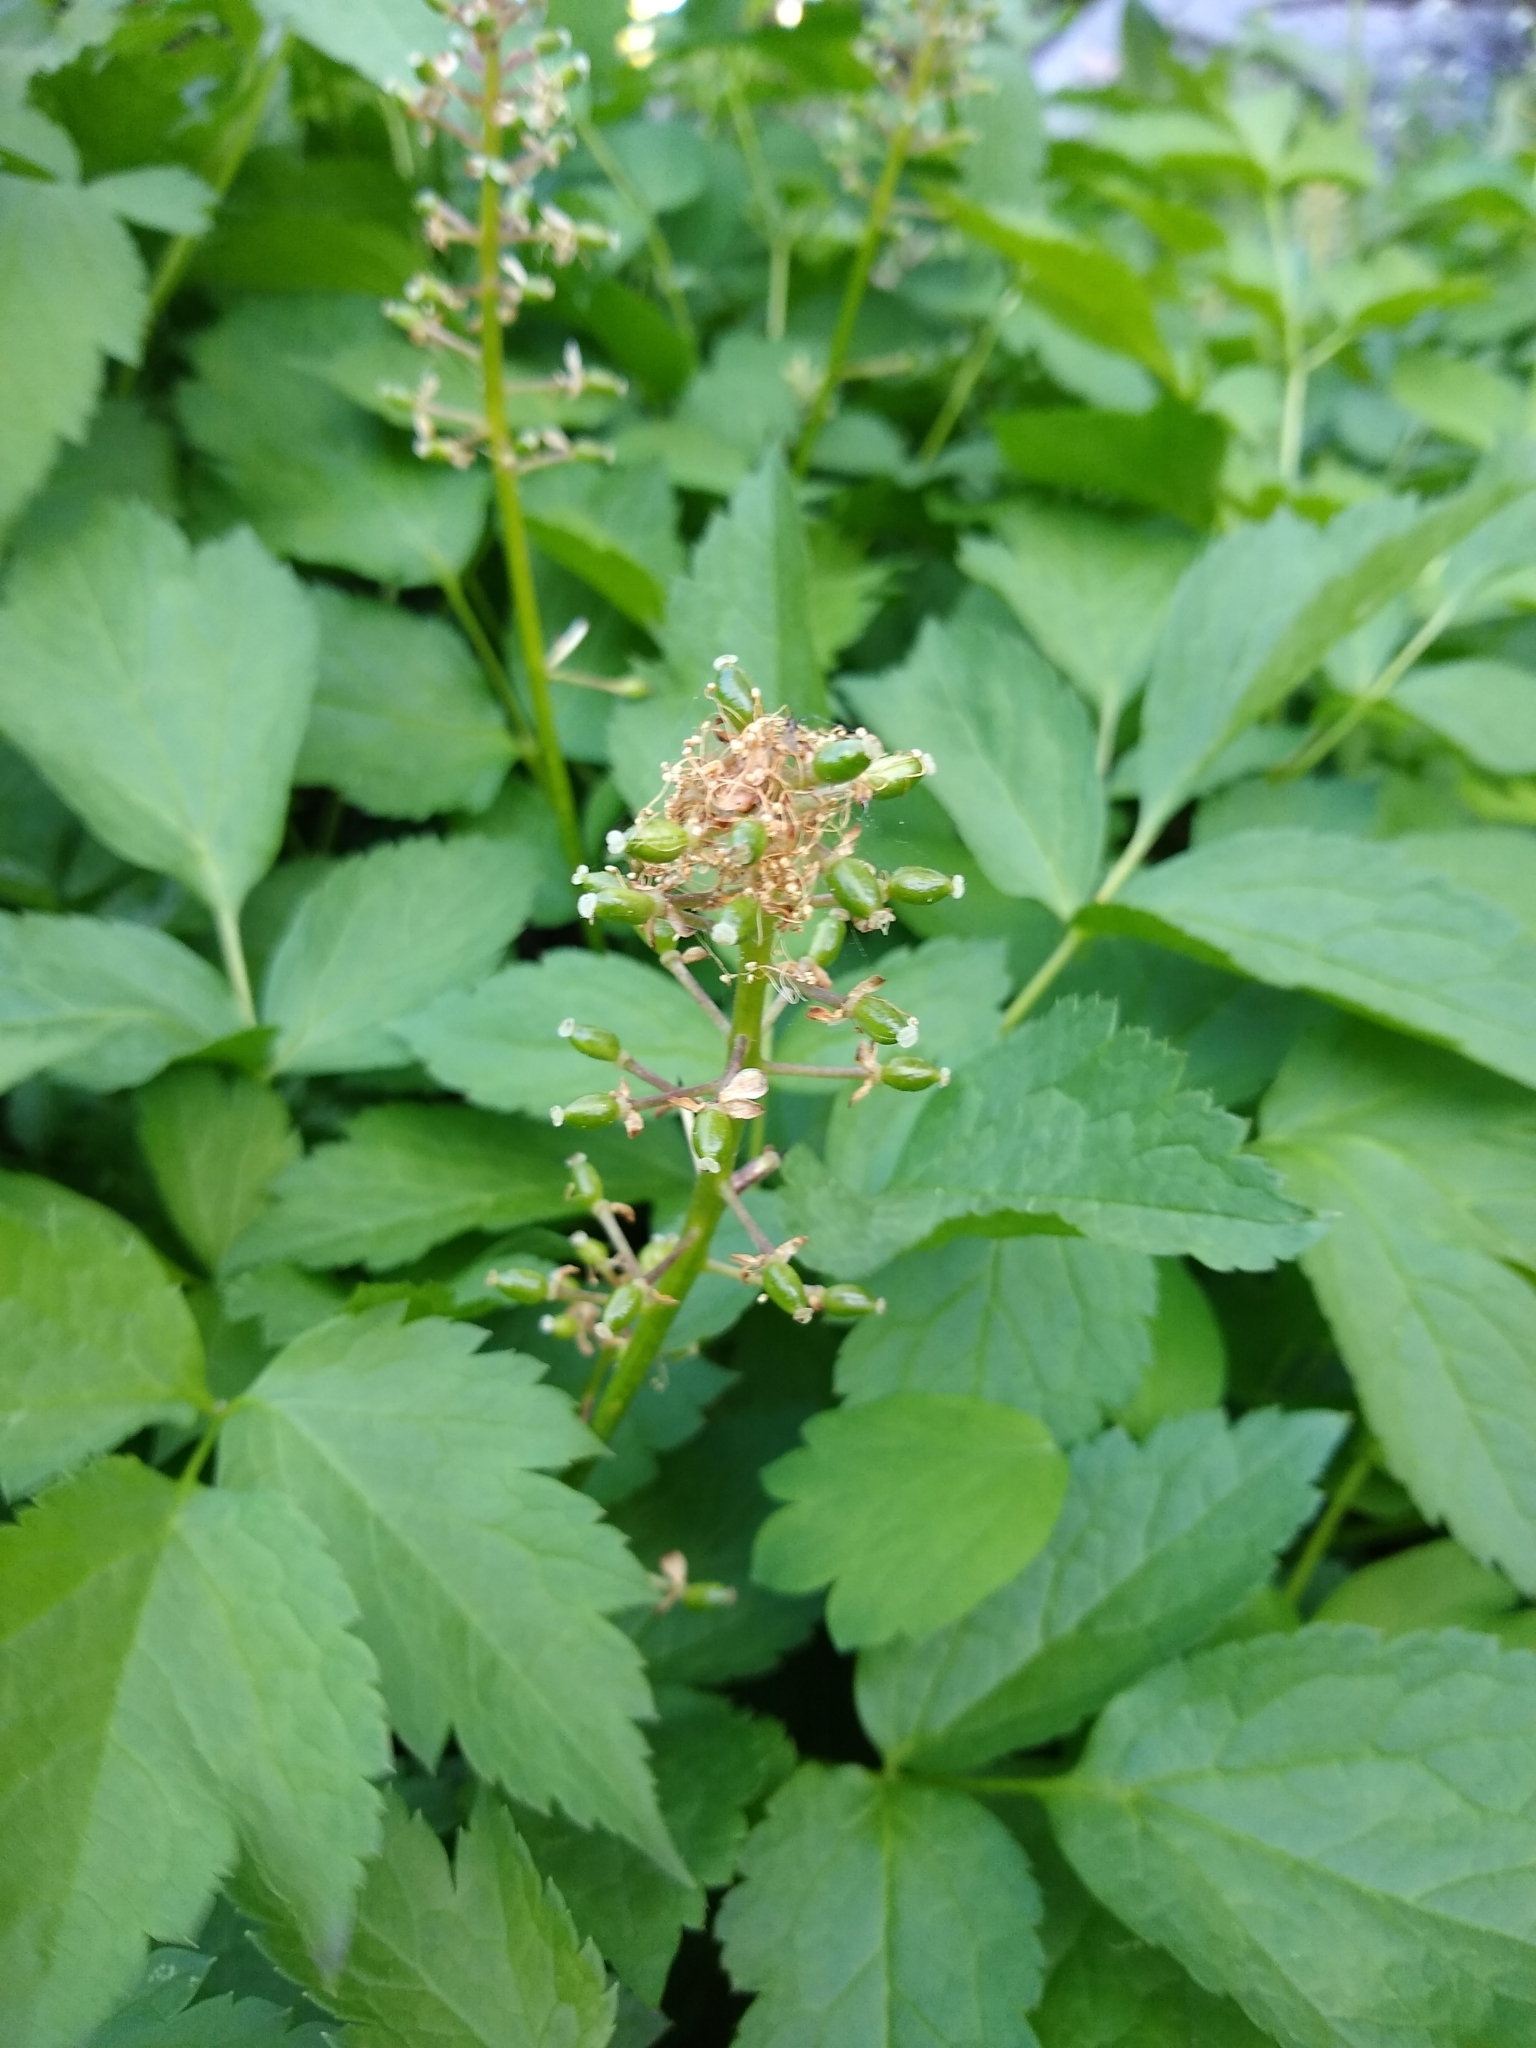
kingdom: Plantae
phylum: Tracheophyta
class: Magnoliopsida
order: Ranunculales
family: Ranunculaceae
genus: Actaea
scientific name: Actaea rubra
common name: Red baneberry
